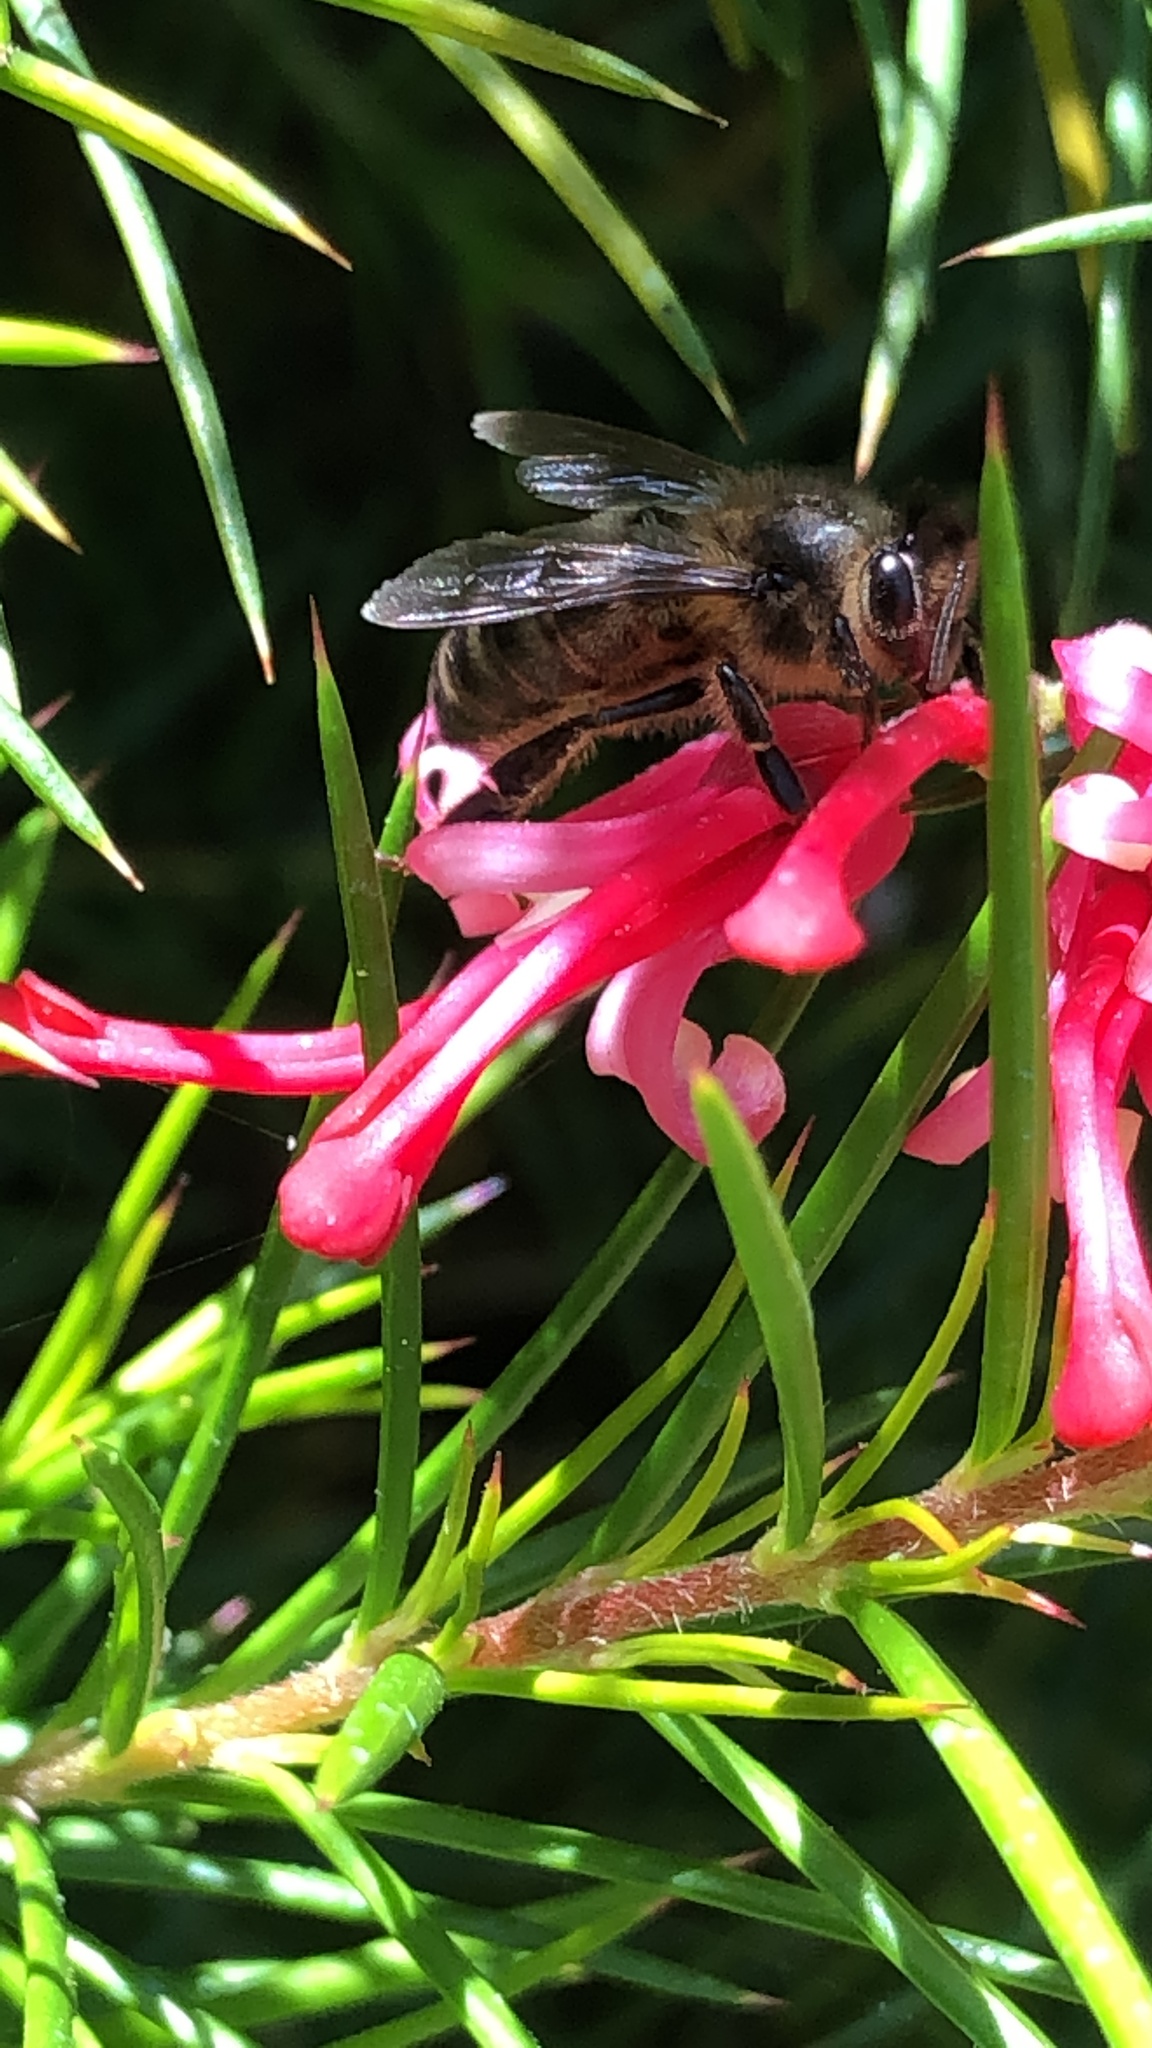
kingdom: Animalia
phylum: Arthropoda
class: Insecta
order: Hymenoptera
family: Apidae
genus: Apis
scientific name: Apis mellifera
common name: Honey bee
